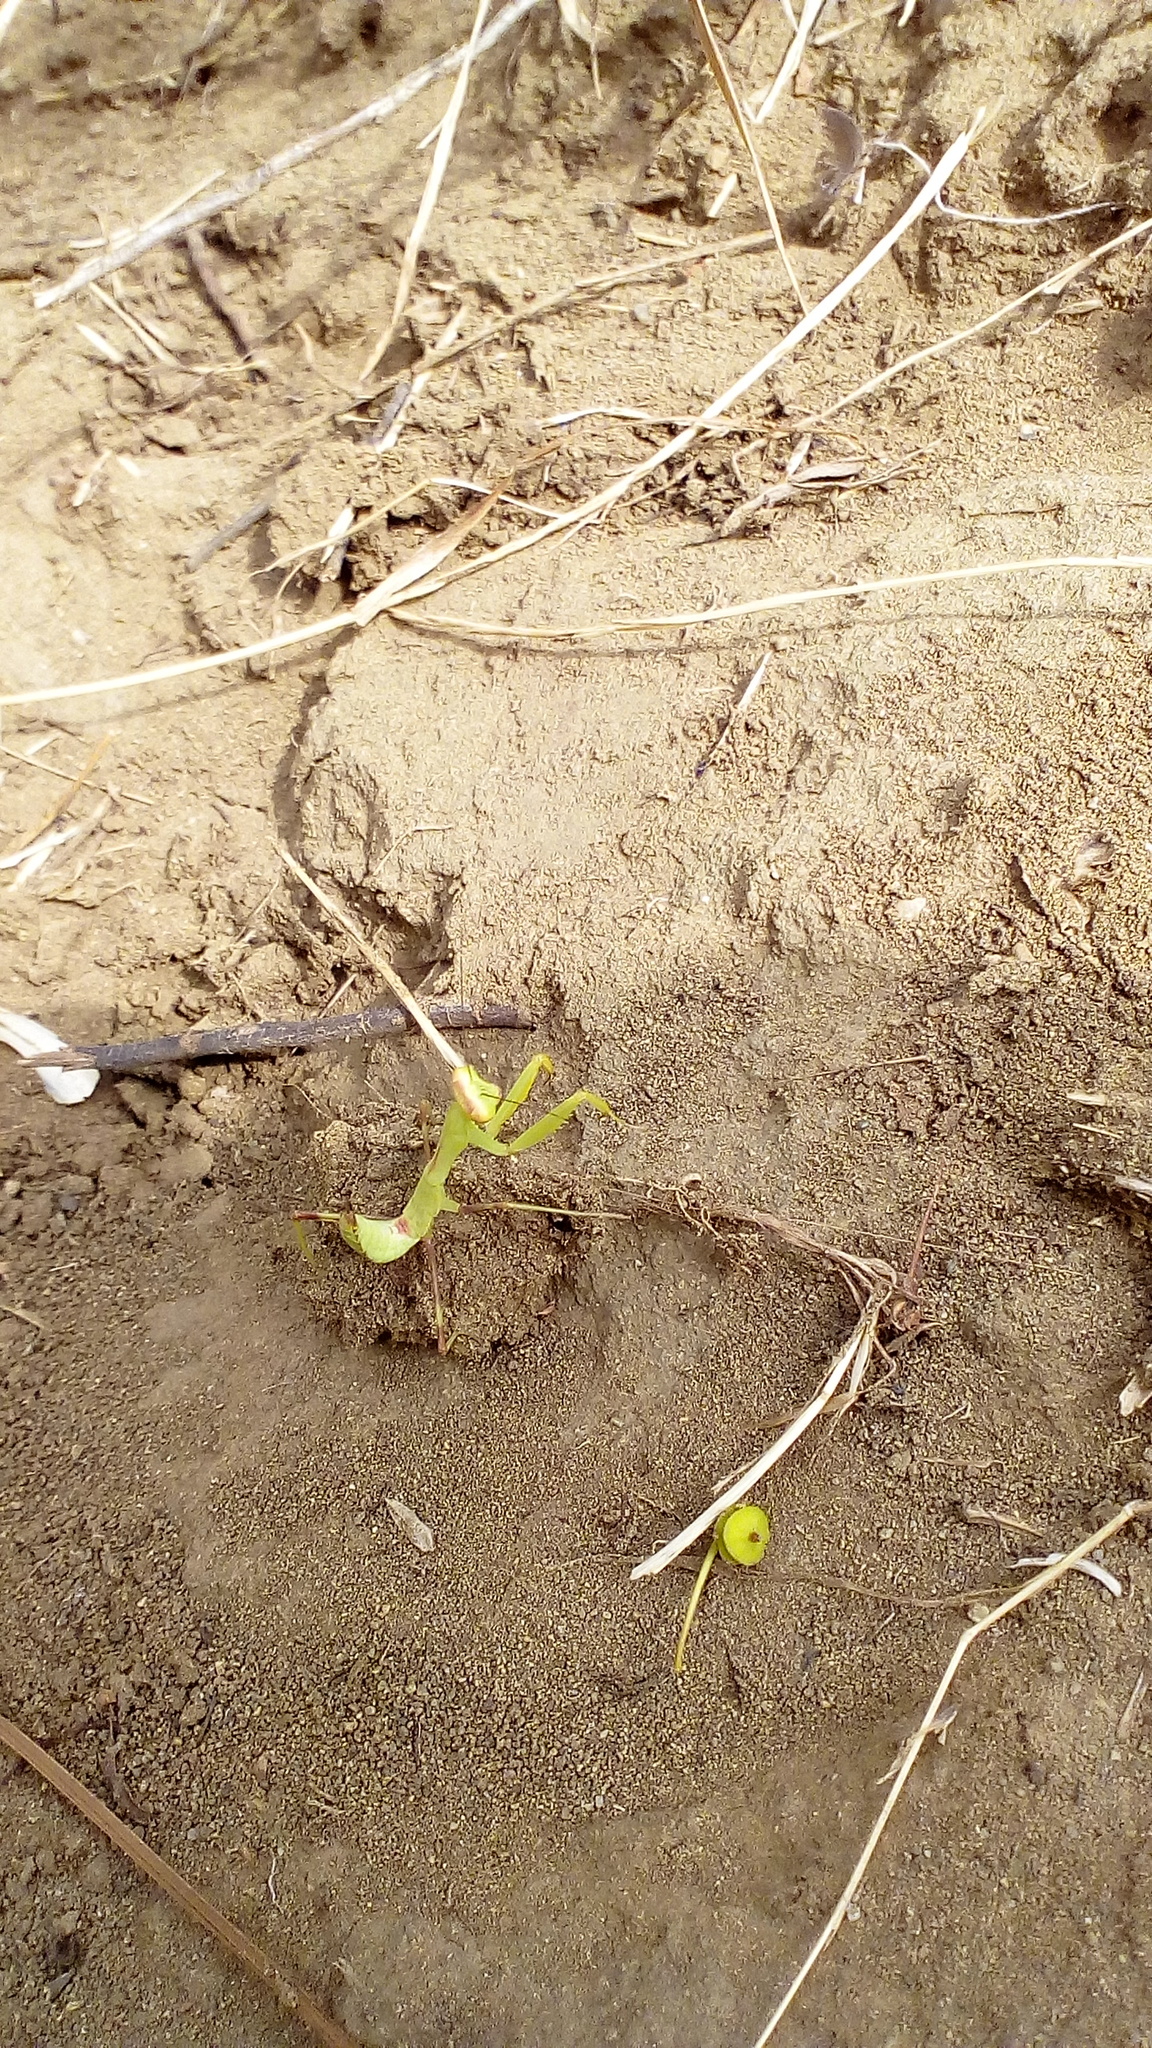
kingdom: Animalia
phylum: Arthropoda
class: Insecta
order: Mantodea
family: Mantidae
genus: Hierodula
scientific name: Hierodula transcaucasica
